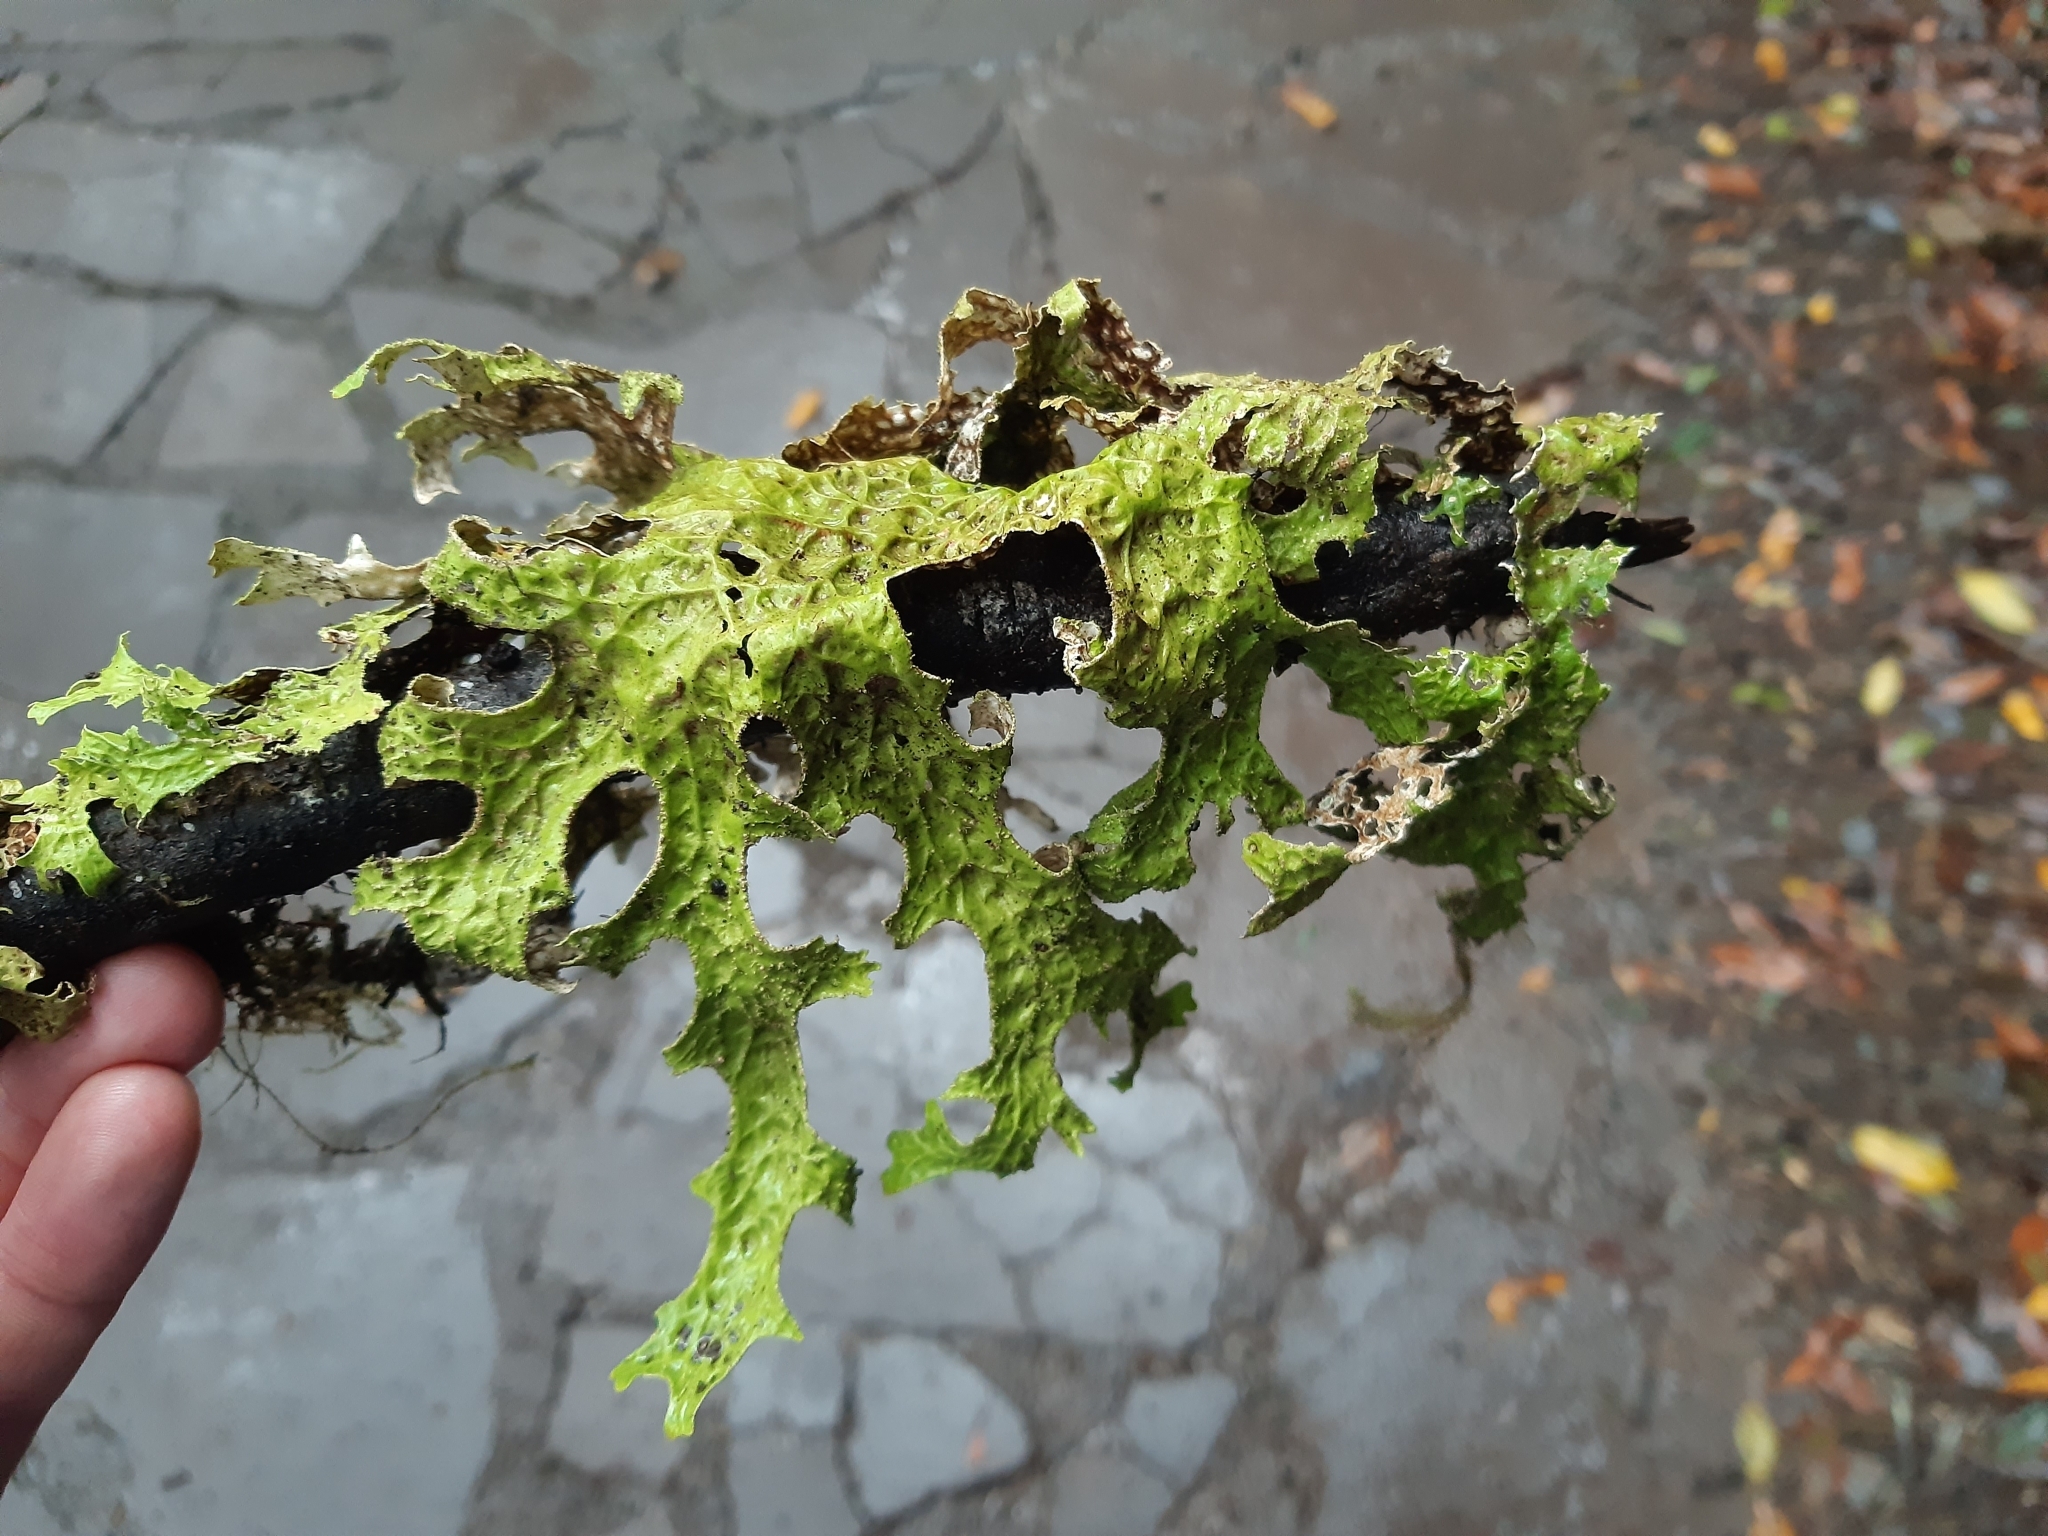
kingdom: Fungi
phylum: Ascomycota
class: Lecanoromycetes
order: Peltigerales
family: Lobariaceae
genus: Lobaria
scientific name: Lobaria pulmonaria
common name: Lungwort
